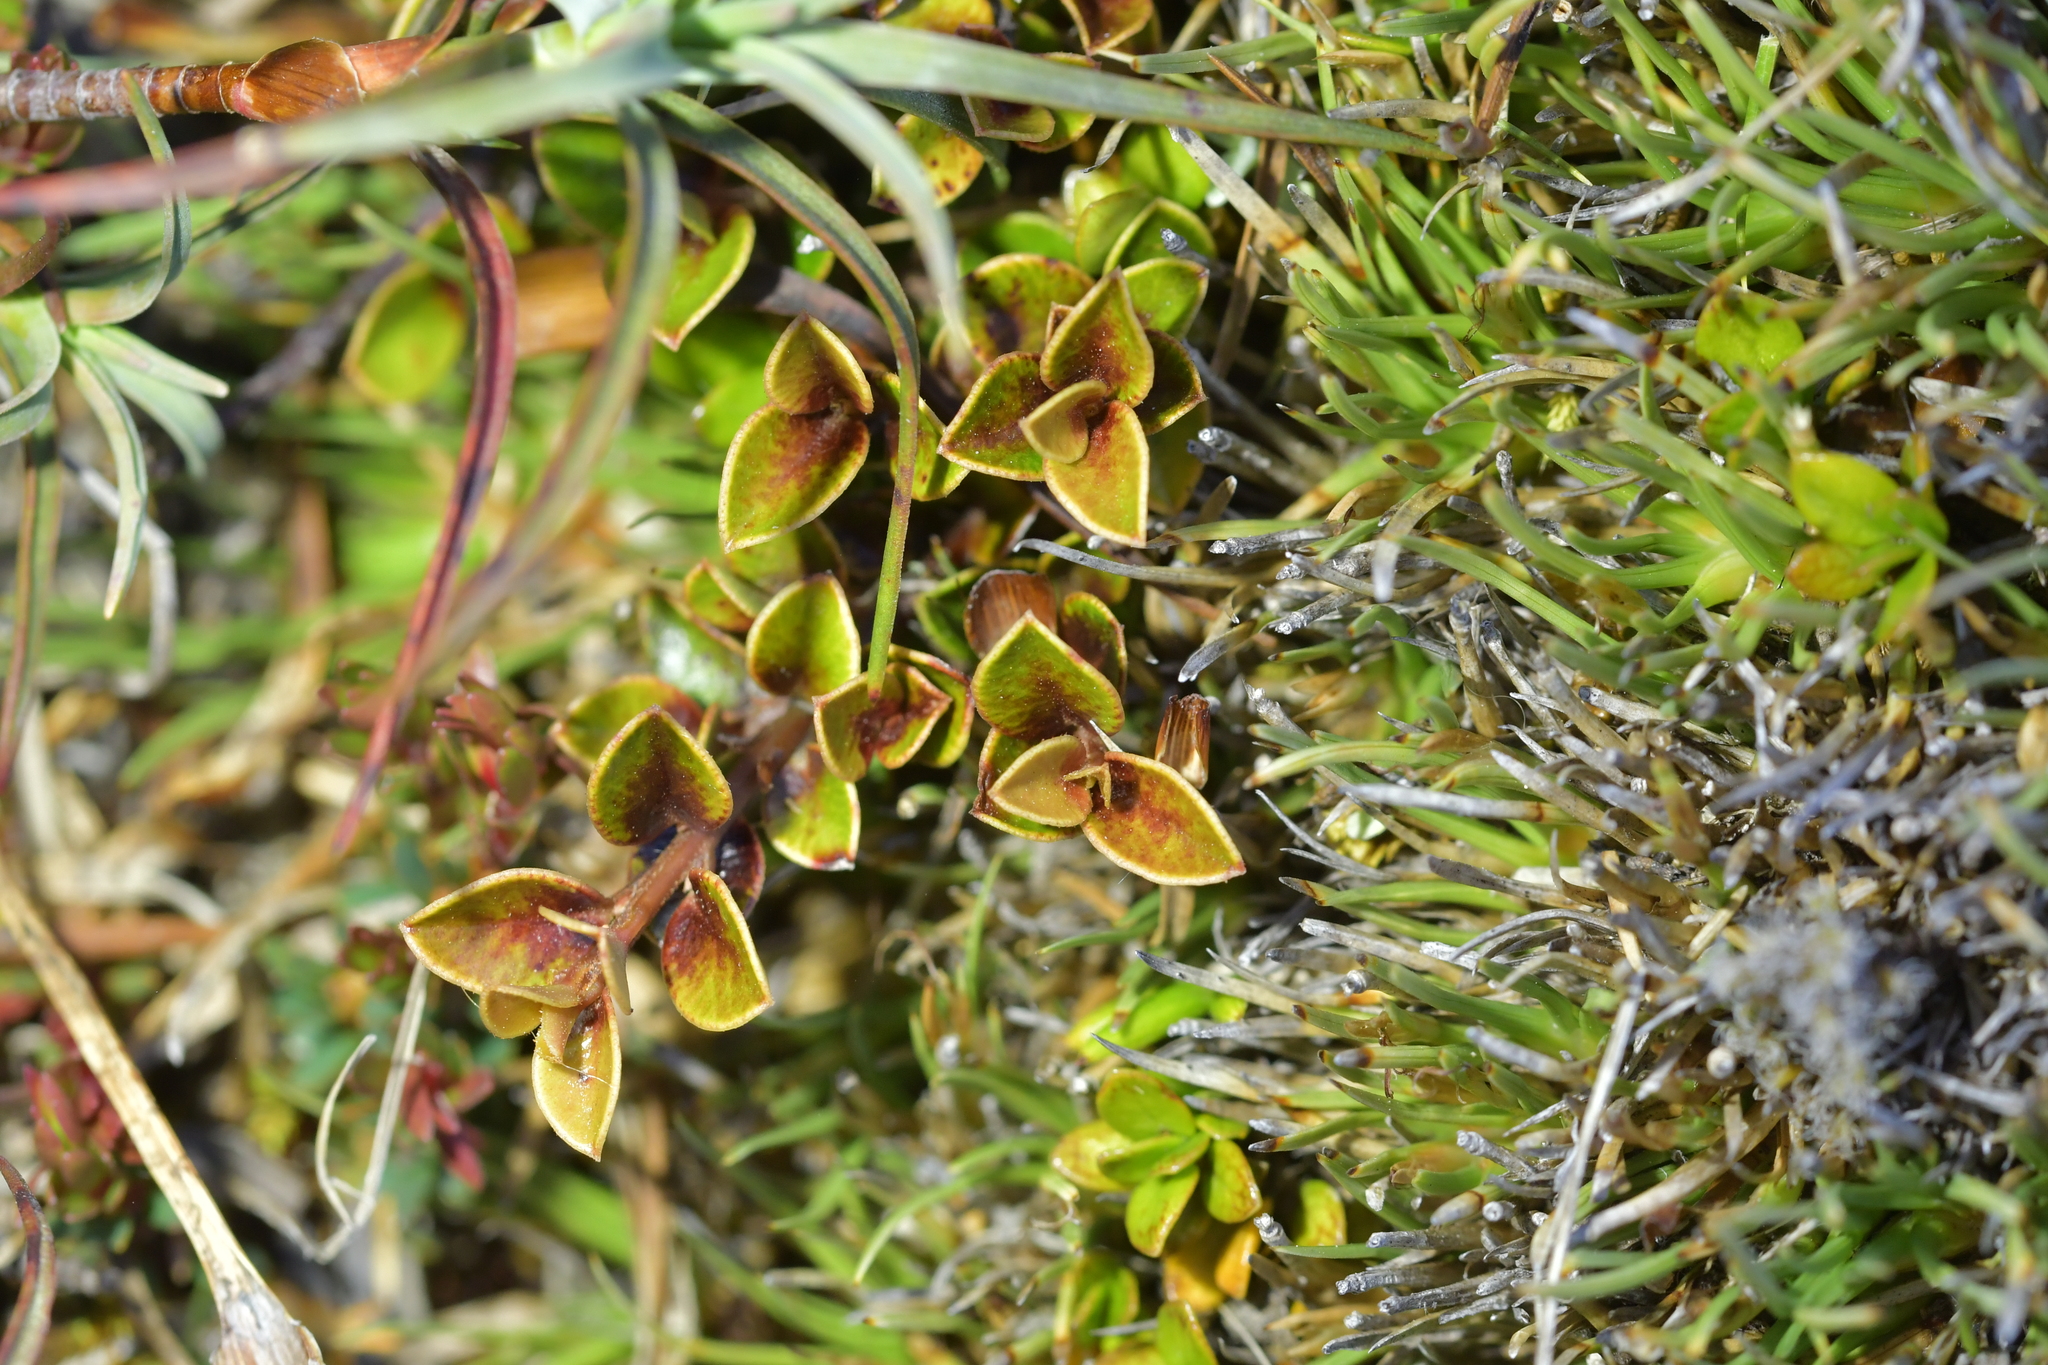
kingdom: Plantae
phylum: Tracheophyta
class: Magnoliopsida
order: Ericales
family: Primulaceae
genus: Myrsine
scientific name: Myrsine nummularia
